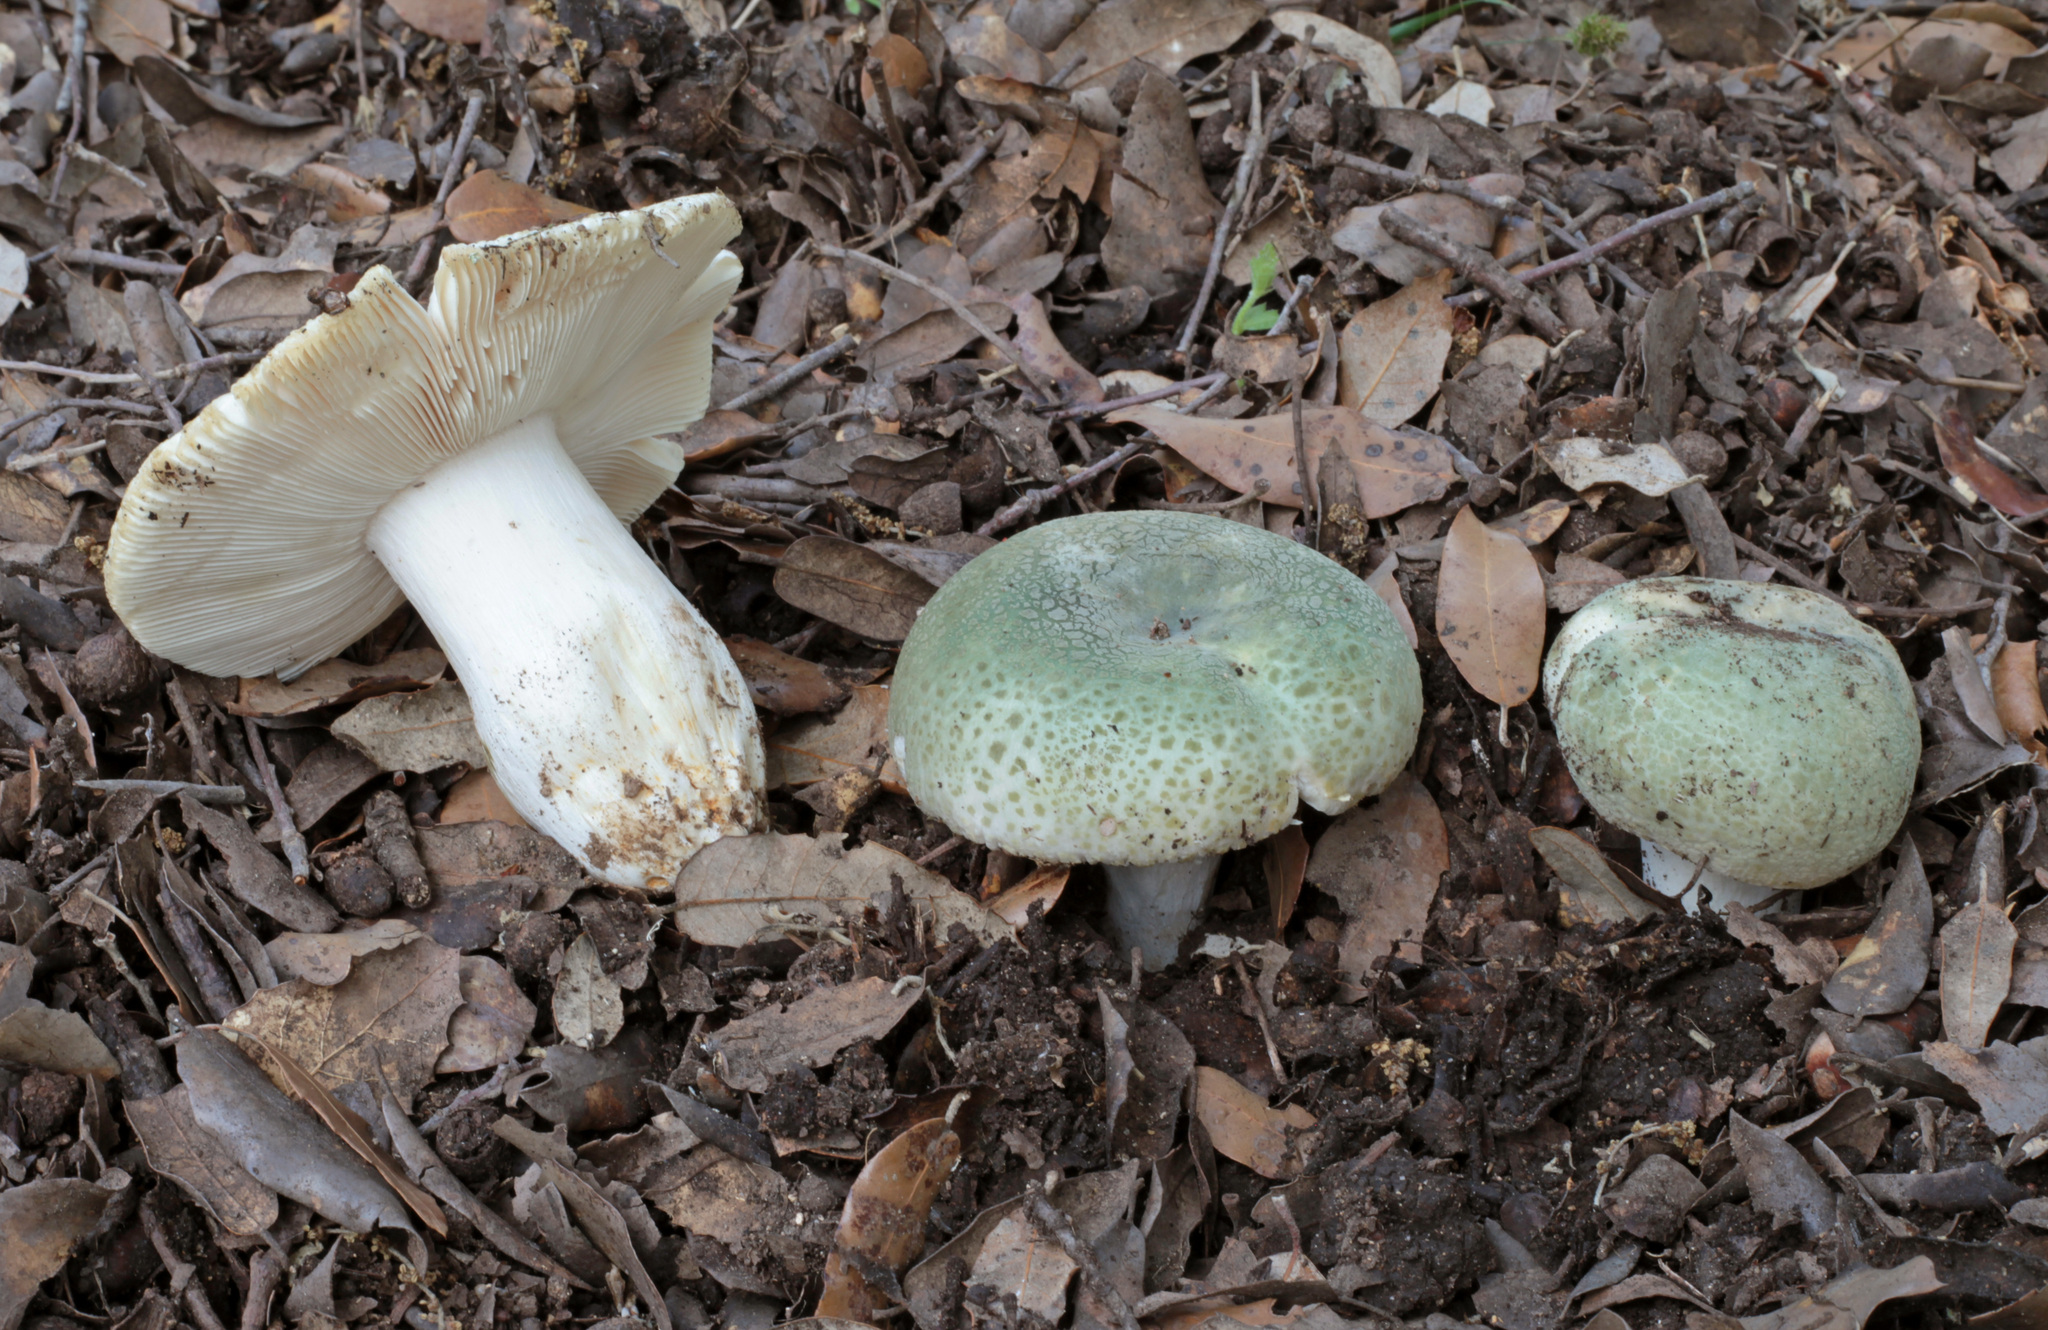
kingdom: Fungi
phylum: Basidiomycota
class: Agaricomycetes
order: Russulales
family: Russulaceae
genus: Russula
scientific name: Russula virescens
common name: Greencracked brittlegill
